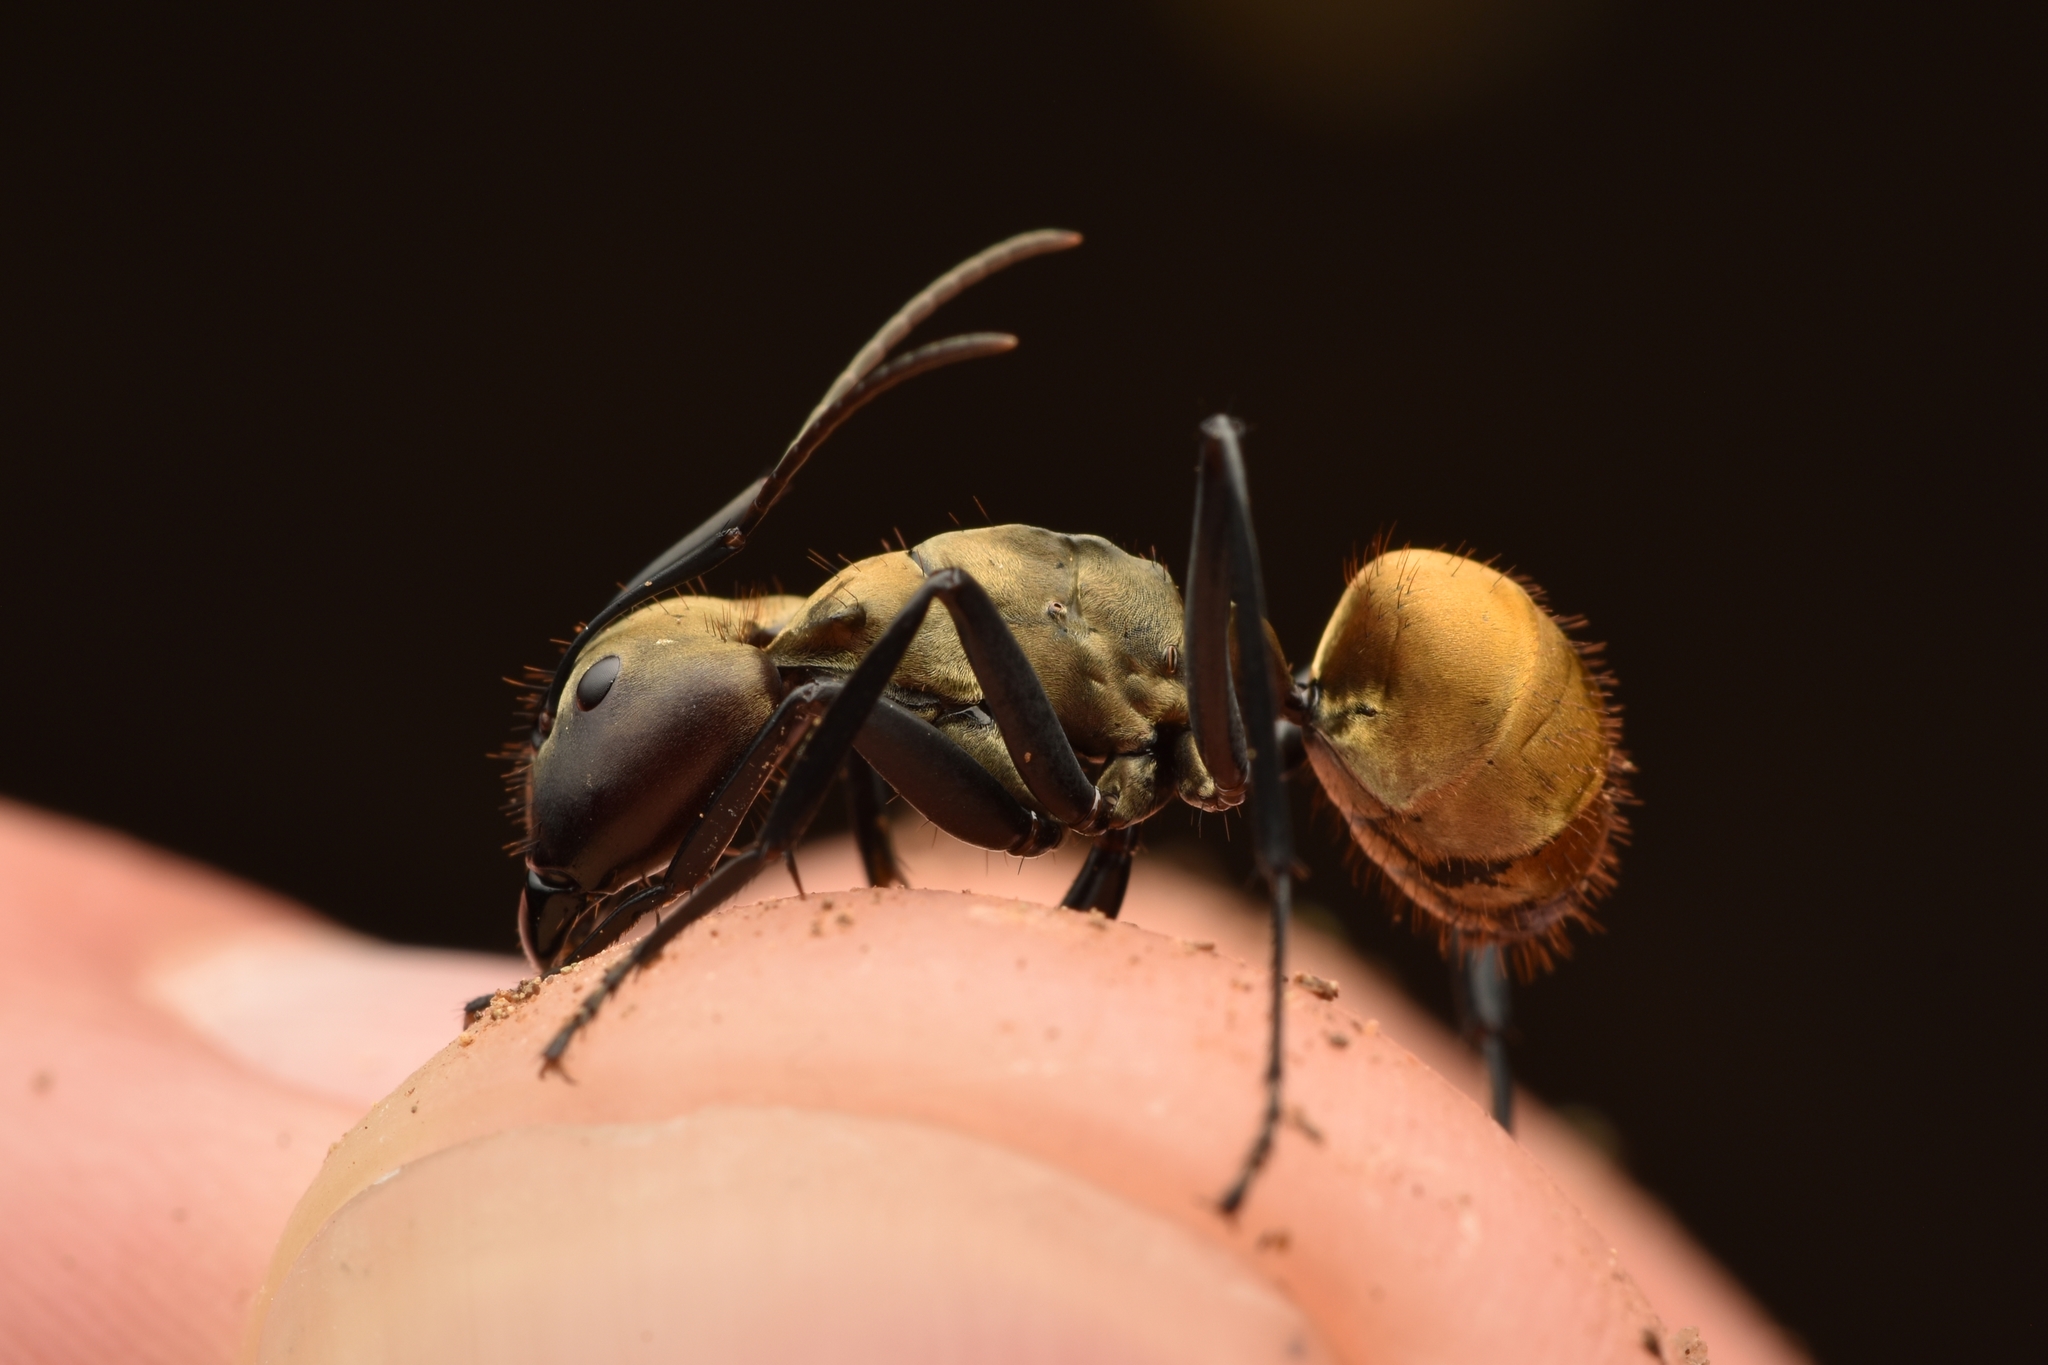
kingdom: Animalia
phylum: Arthropoda
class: Insecta
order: Hymenoptera
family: Formicidae
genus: Camponotus
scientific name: Camponotus sericeiventris
